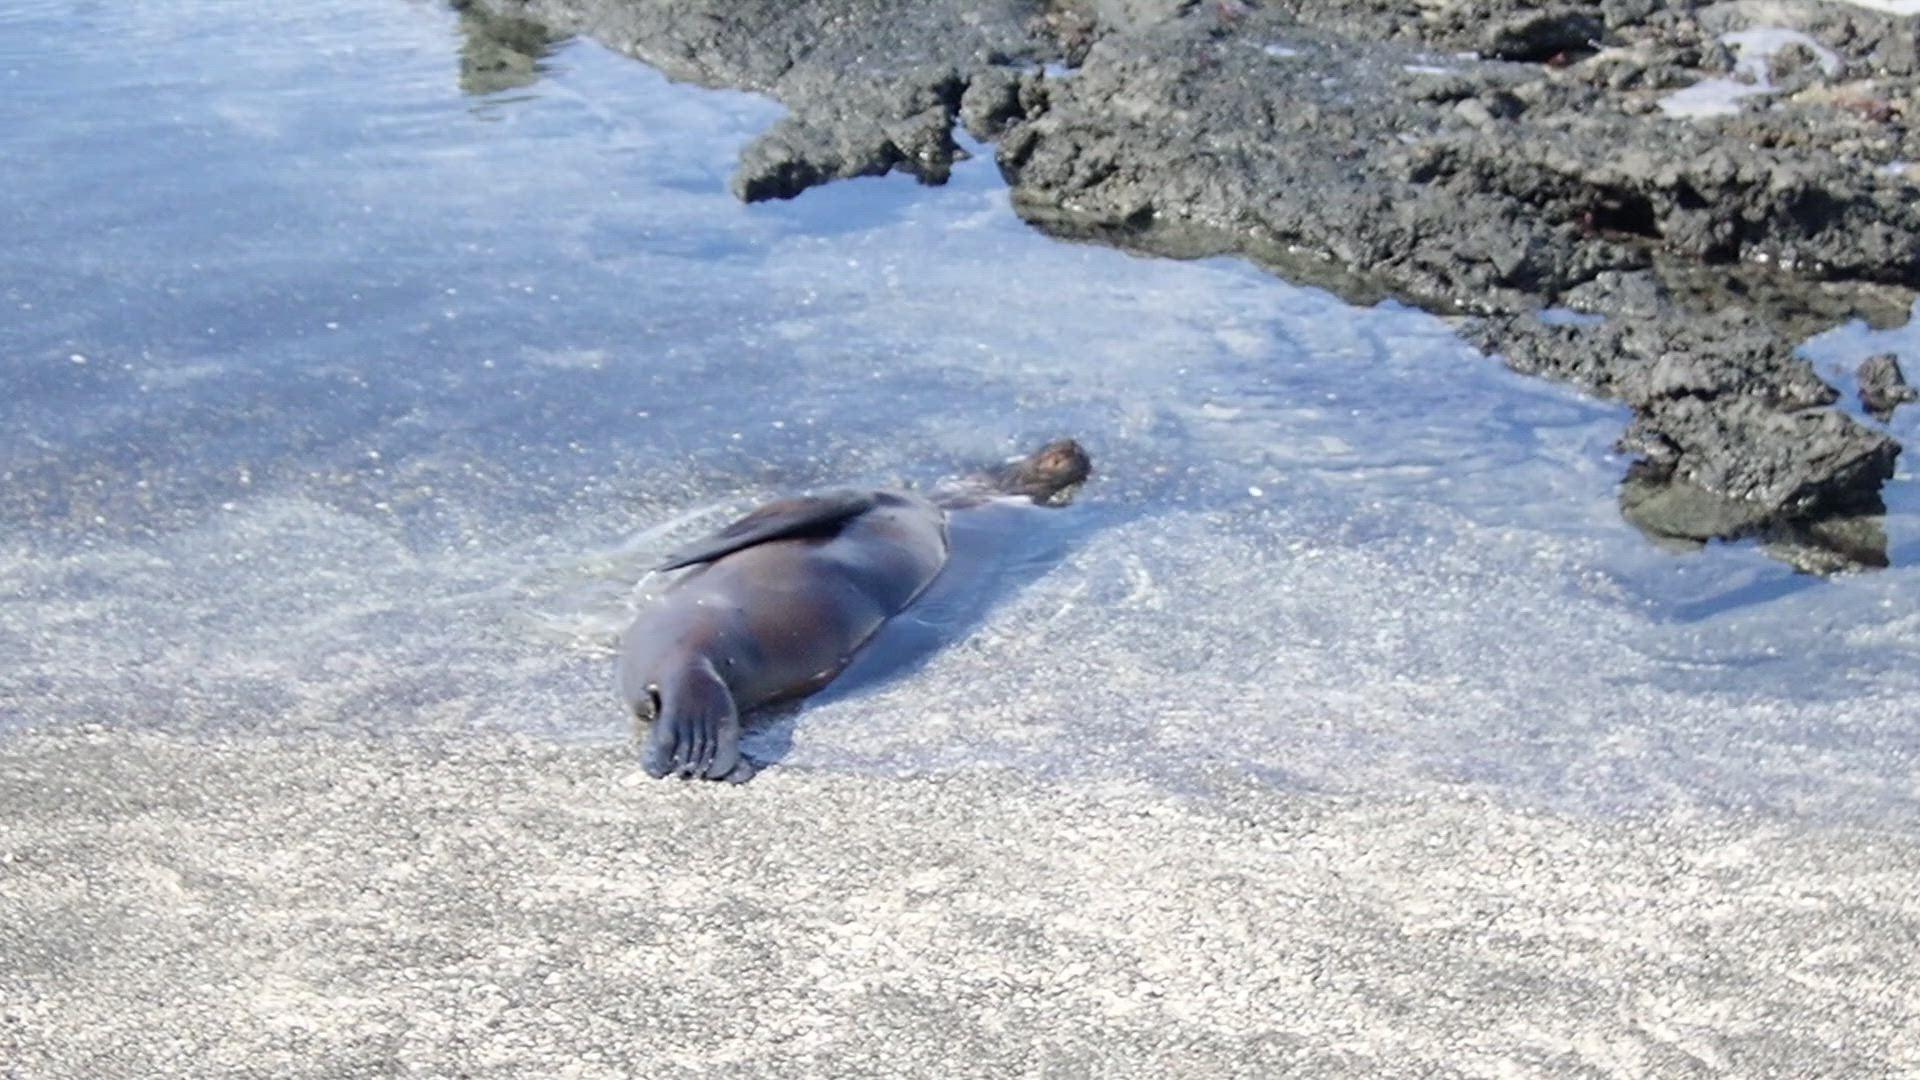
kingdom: Animalia
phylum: Chordata
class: Mammalia
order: Carnivora
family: Otariidae
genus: Zalophus
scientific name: Zalophus wollebaeki
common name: Galapagos sea lion
